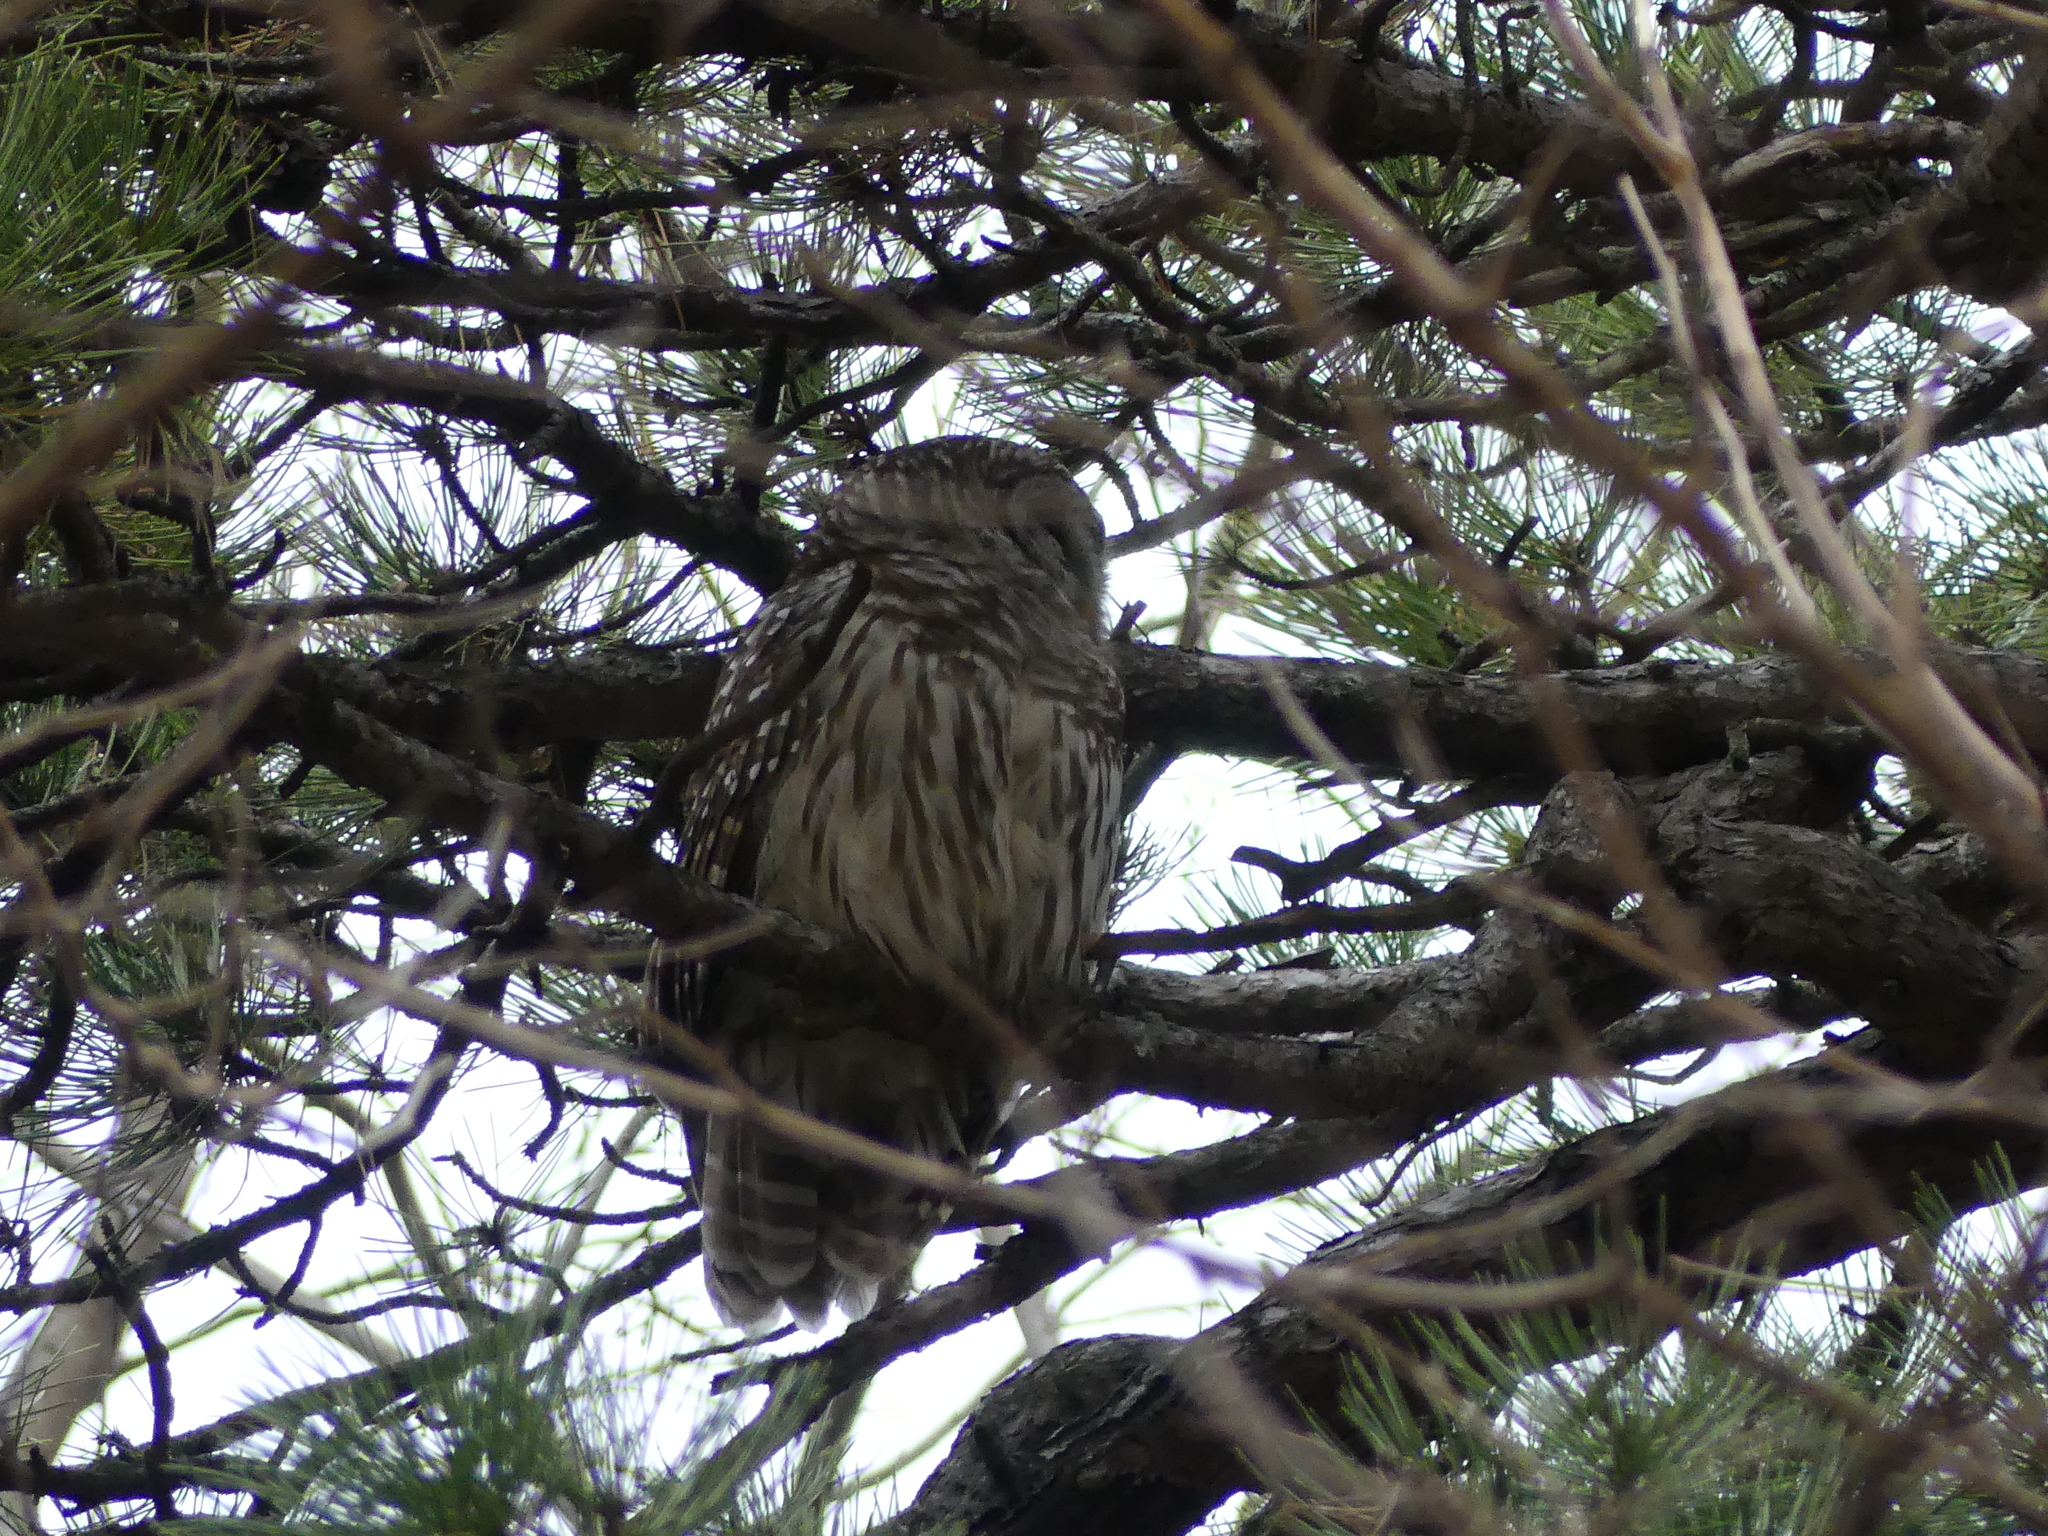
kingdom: Animalia
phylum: Chordata
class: Aves
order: Strigiformes
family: Strigidae
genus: Strix
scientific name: Strix varia
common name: Barred owl
